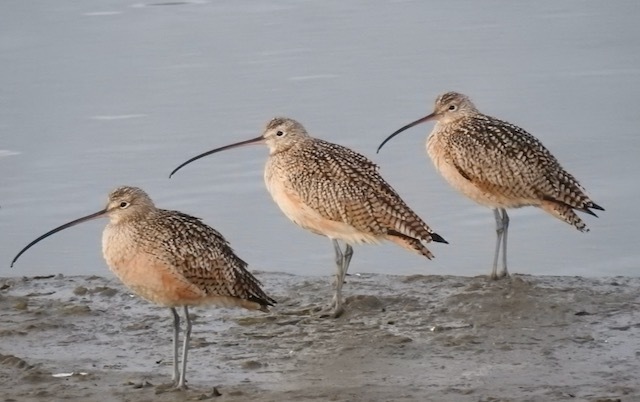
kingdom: Animalia
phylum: Chordata
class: Aves
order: Charadriiformes
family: Scolopacidae
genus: Numenius
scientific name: Numenius americanus
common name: Long-billed curlew
